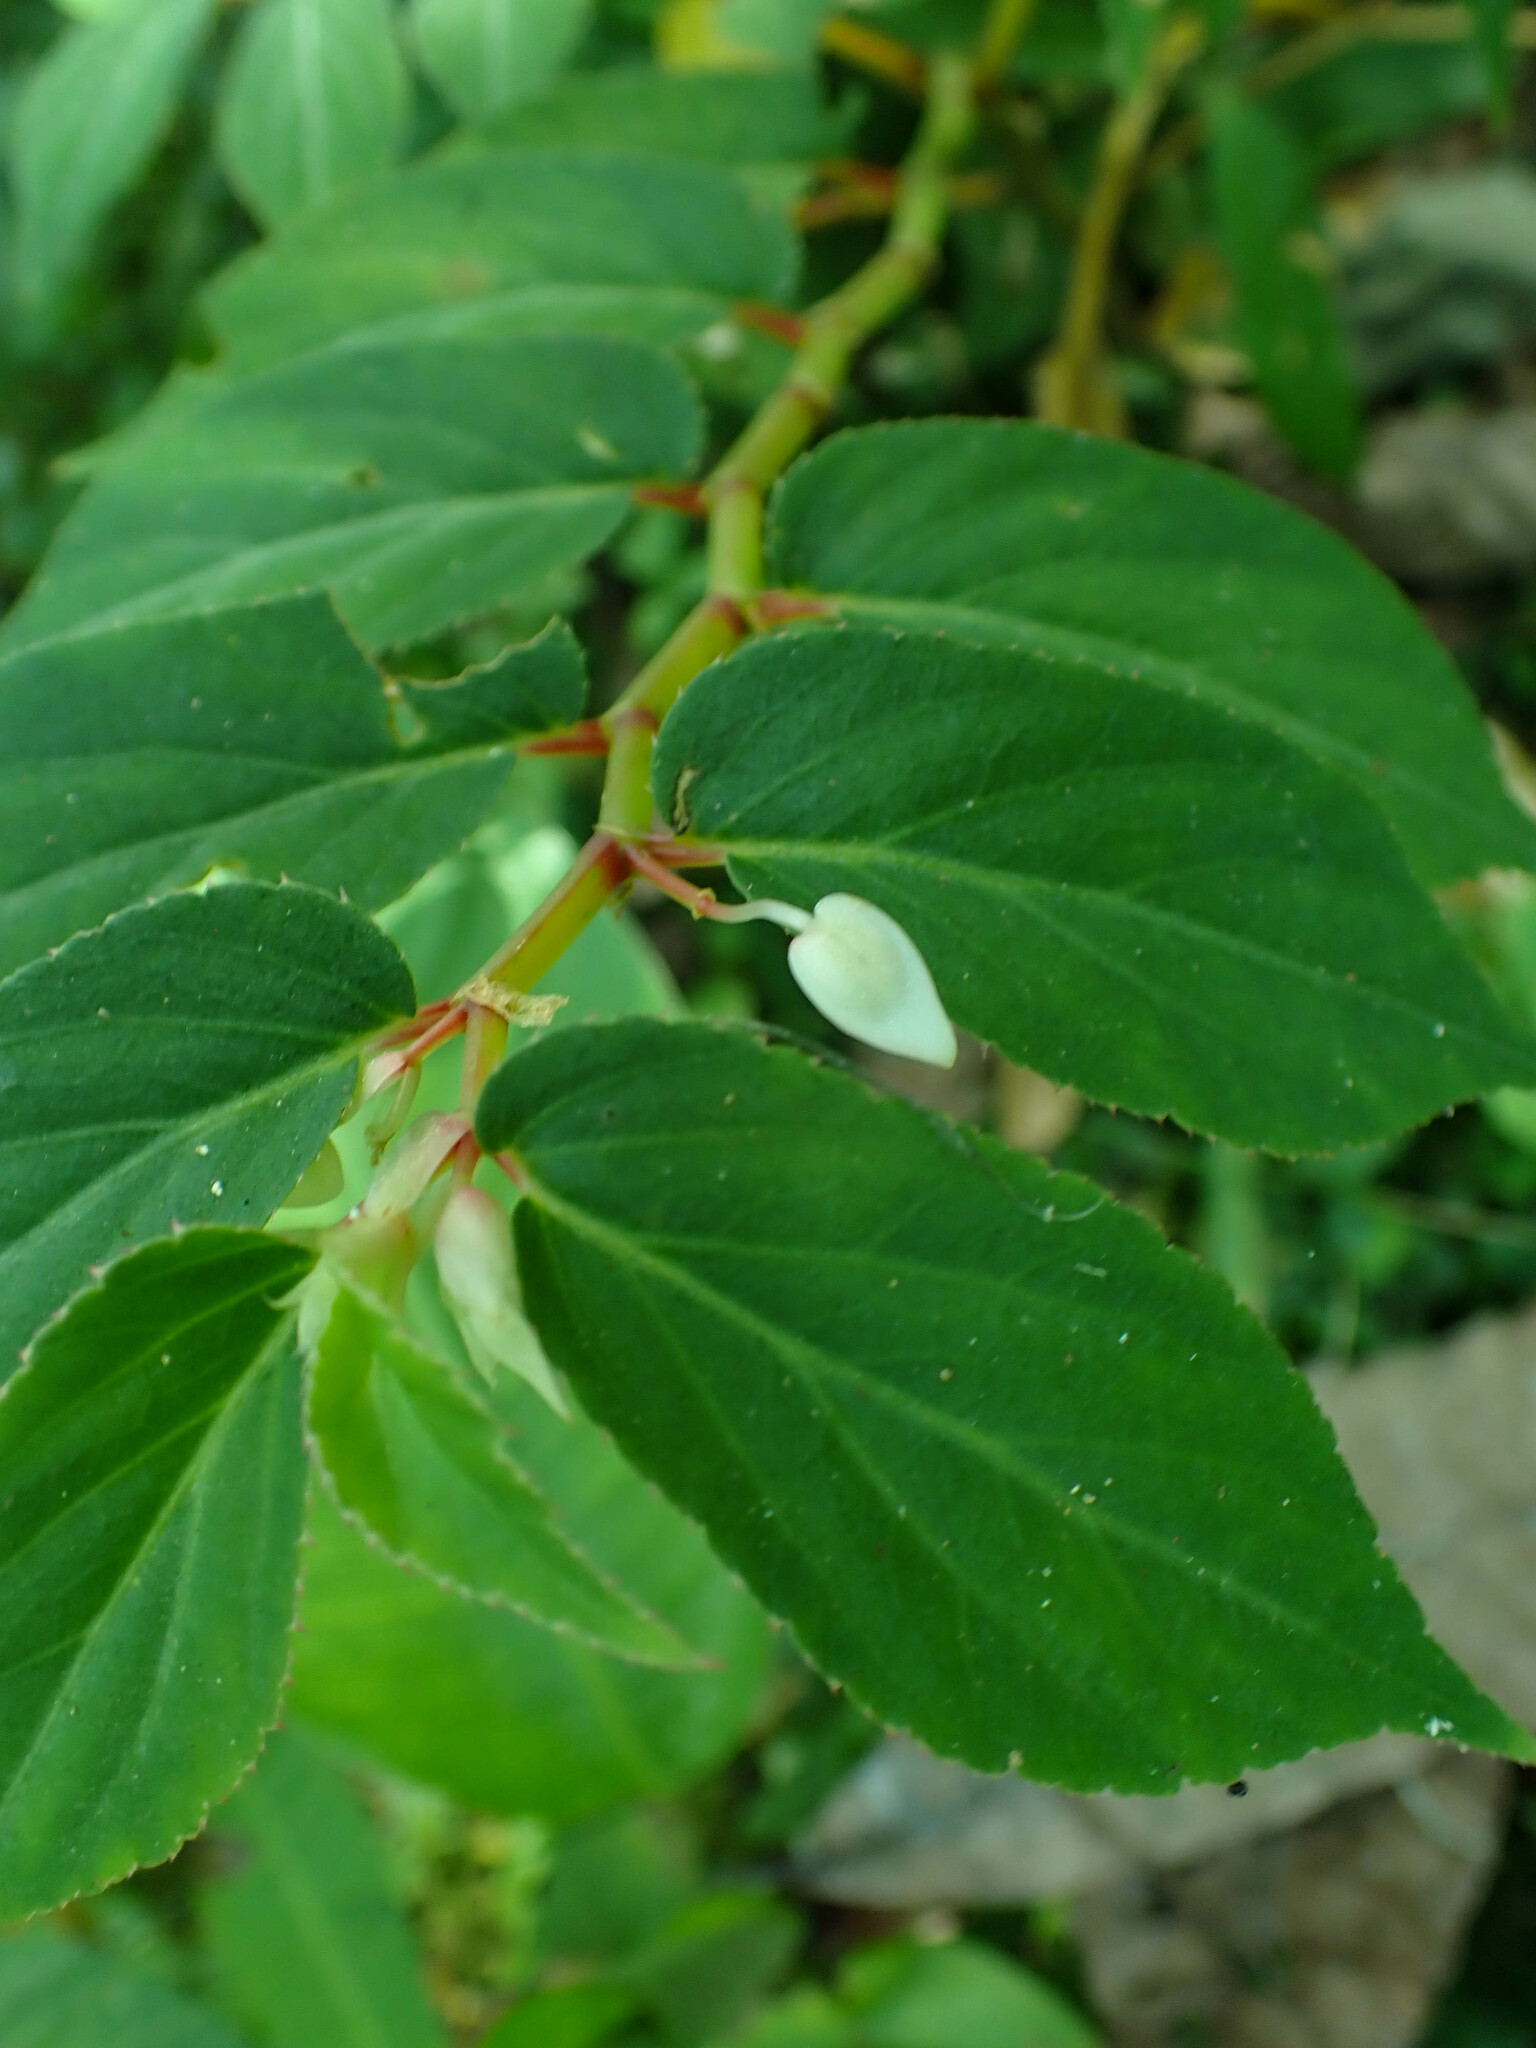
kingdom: Plantae
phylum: Tracheophyta
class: Magnoliopsida
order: Cucurbitales
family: Begoniaceae
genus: Begonia
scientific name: Begonia guaduensis
